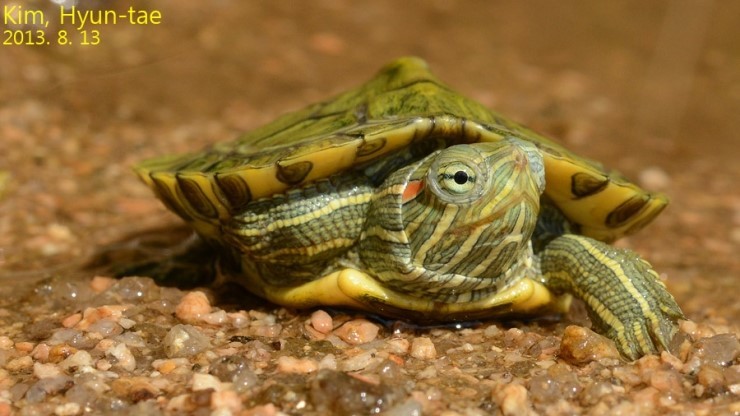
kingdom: Animalia
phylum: Chordata
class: Testudines
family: Emydidae
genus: Trachemys
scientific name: Trachemys scripta
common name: Slider
